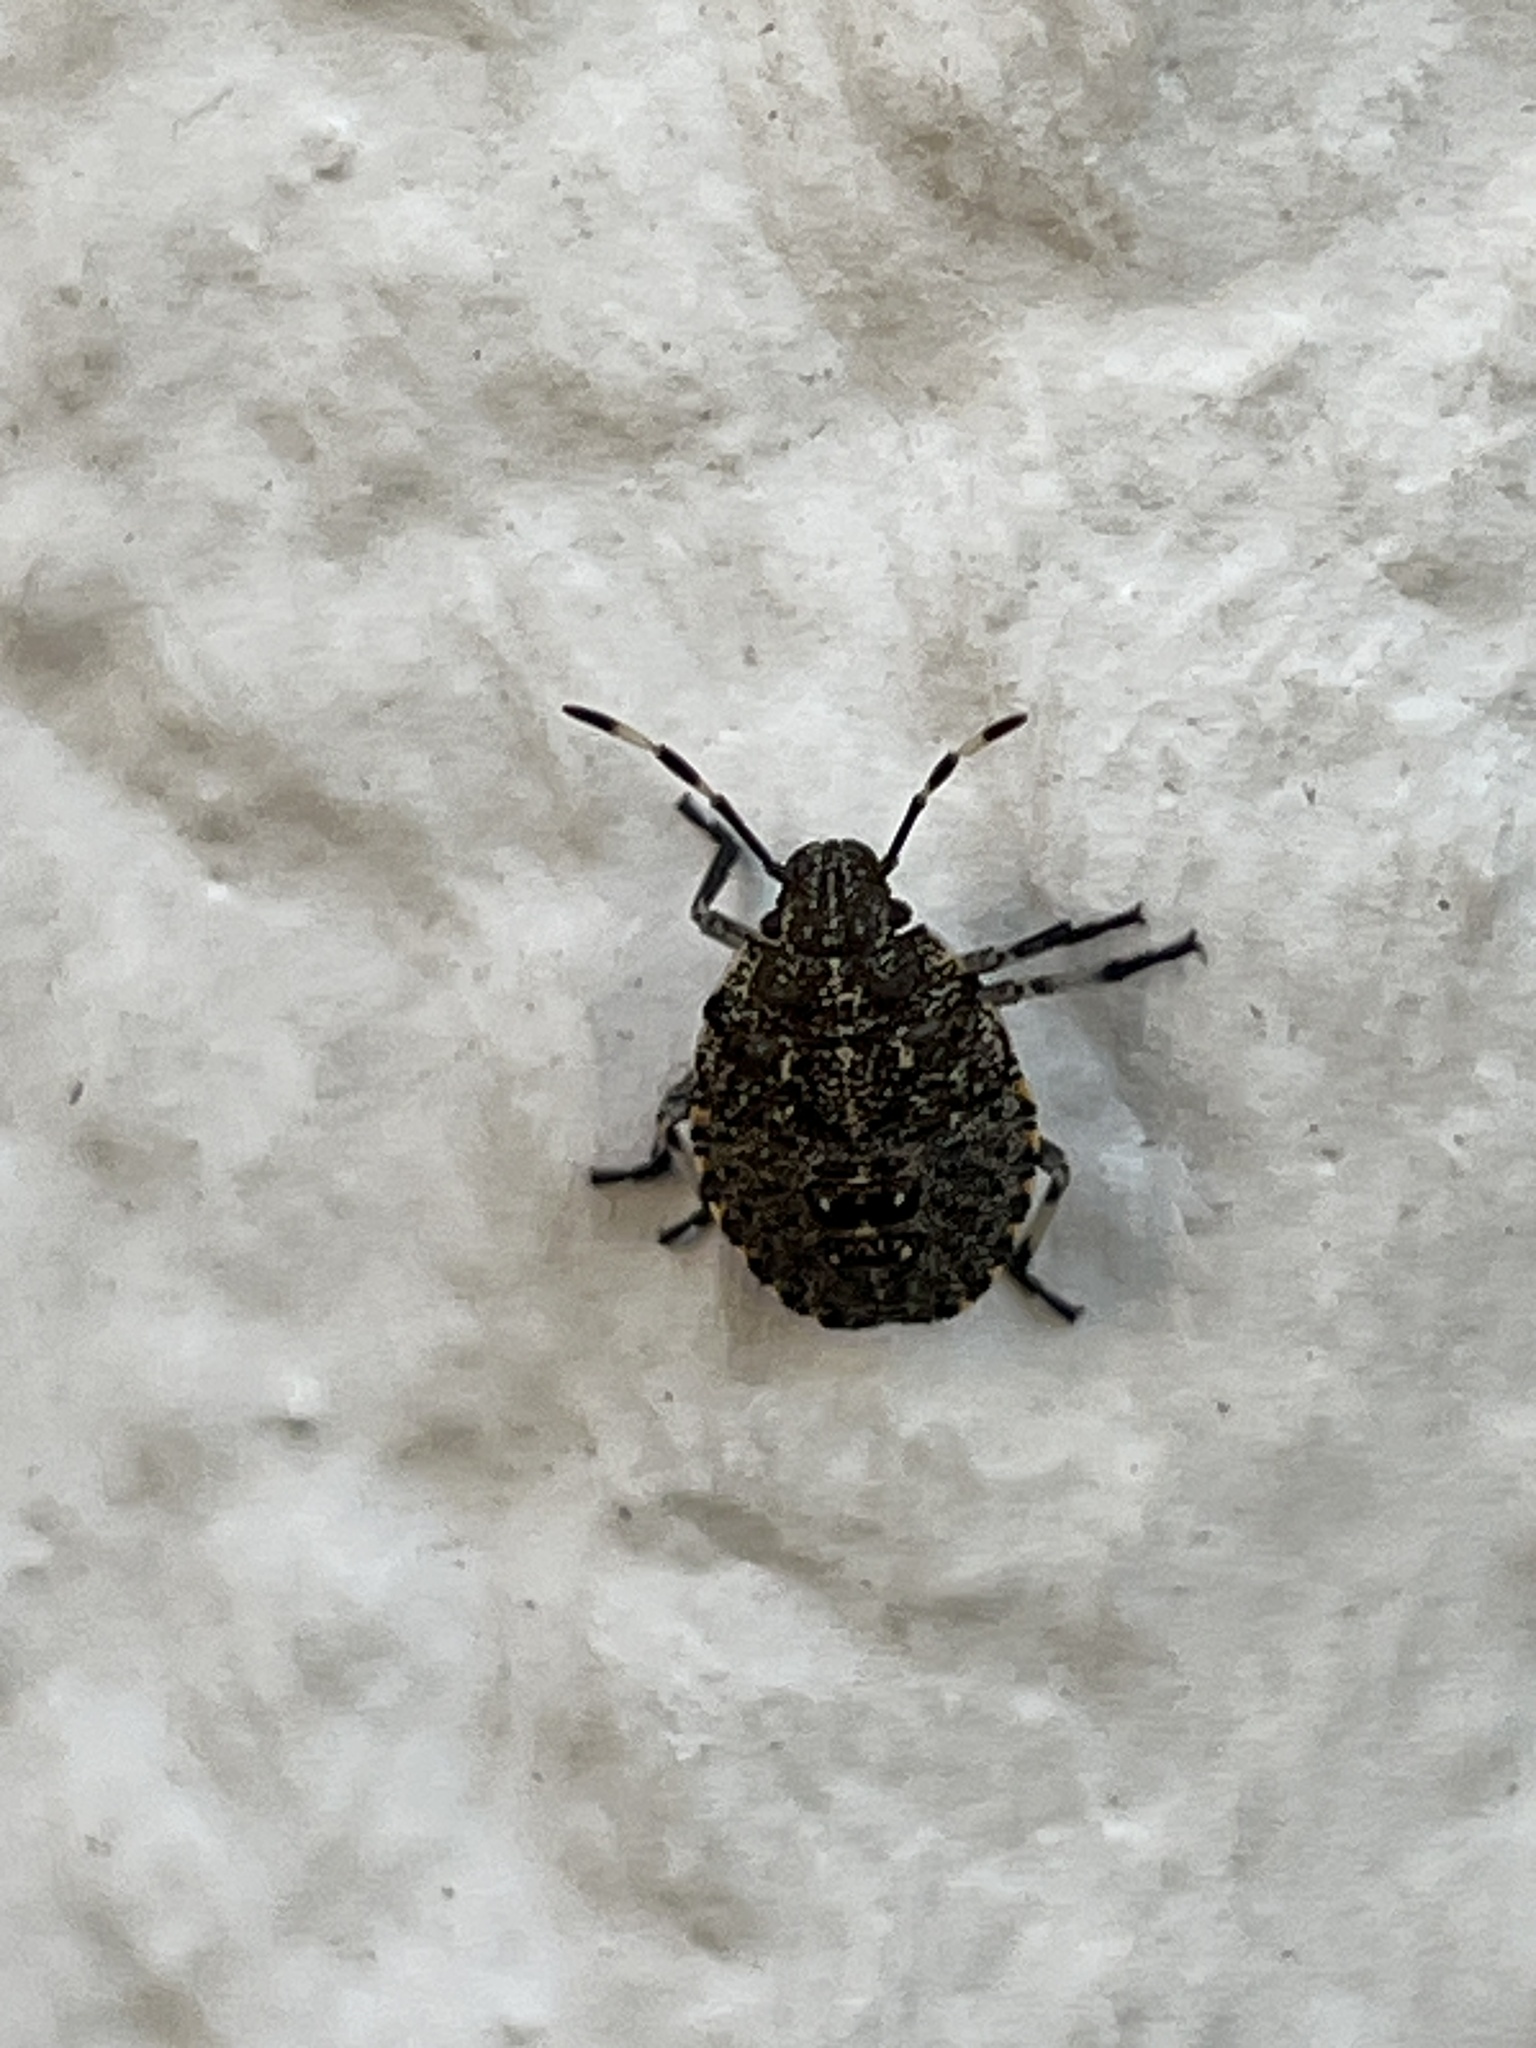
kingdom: Animalia
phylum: Arthropoda
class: Insecta
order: Hemiptera
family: Pentatomidae
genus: Rhaphigaster
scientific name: Rhaphigaster nebulosa
